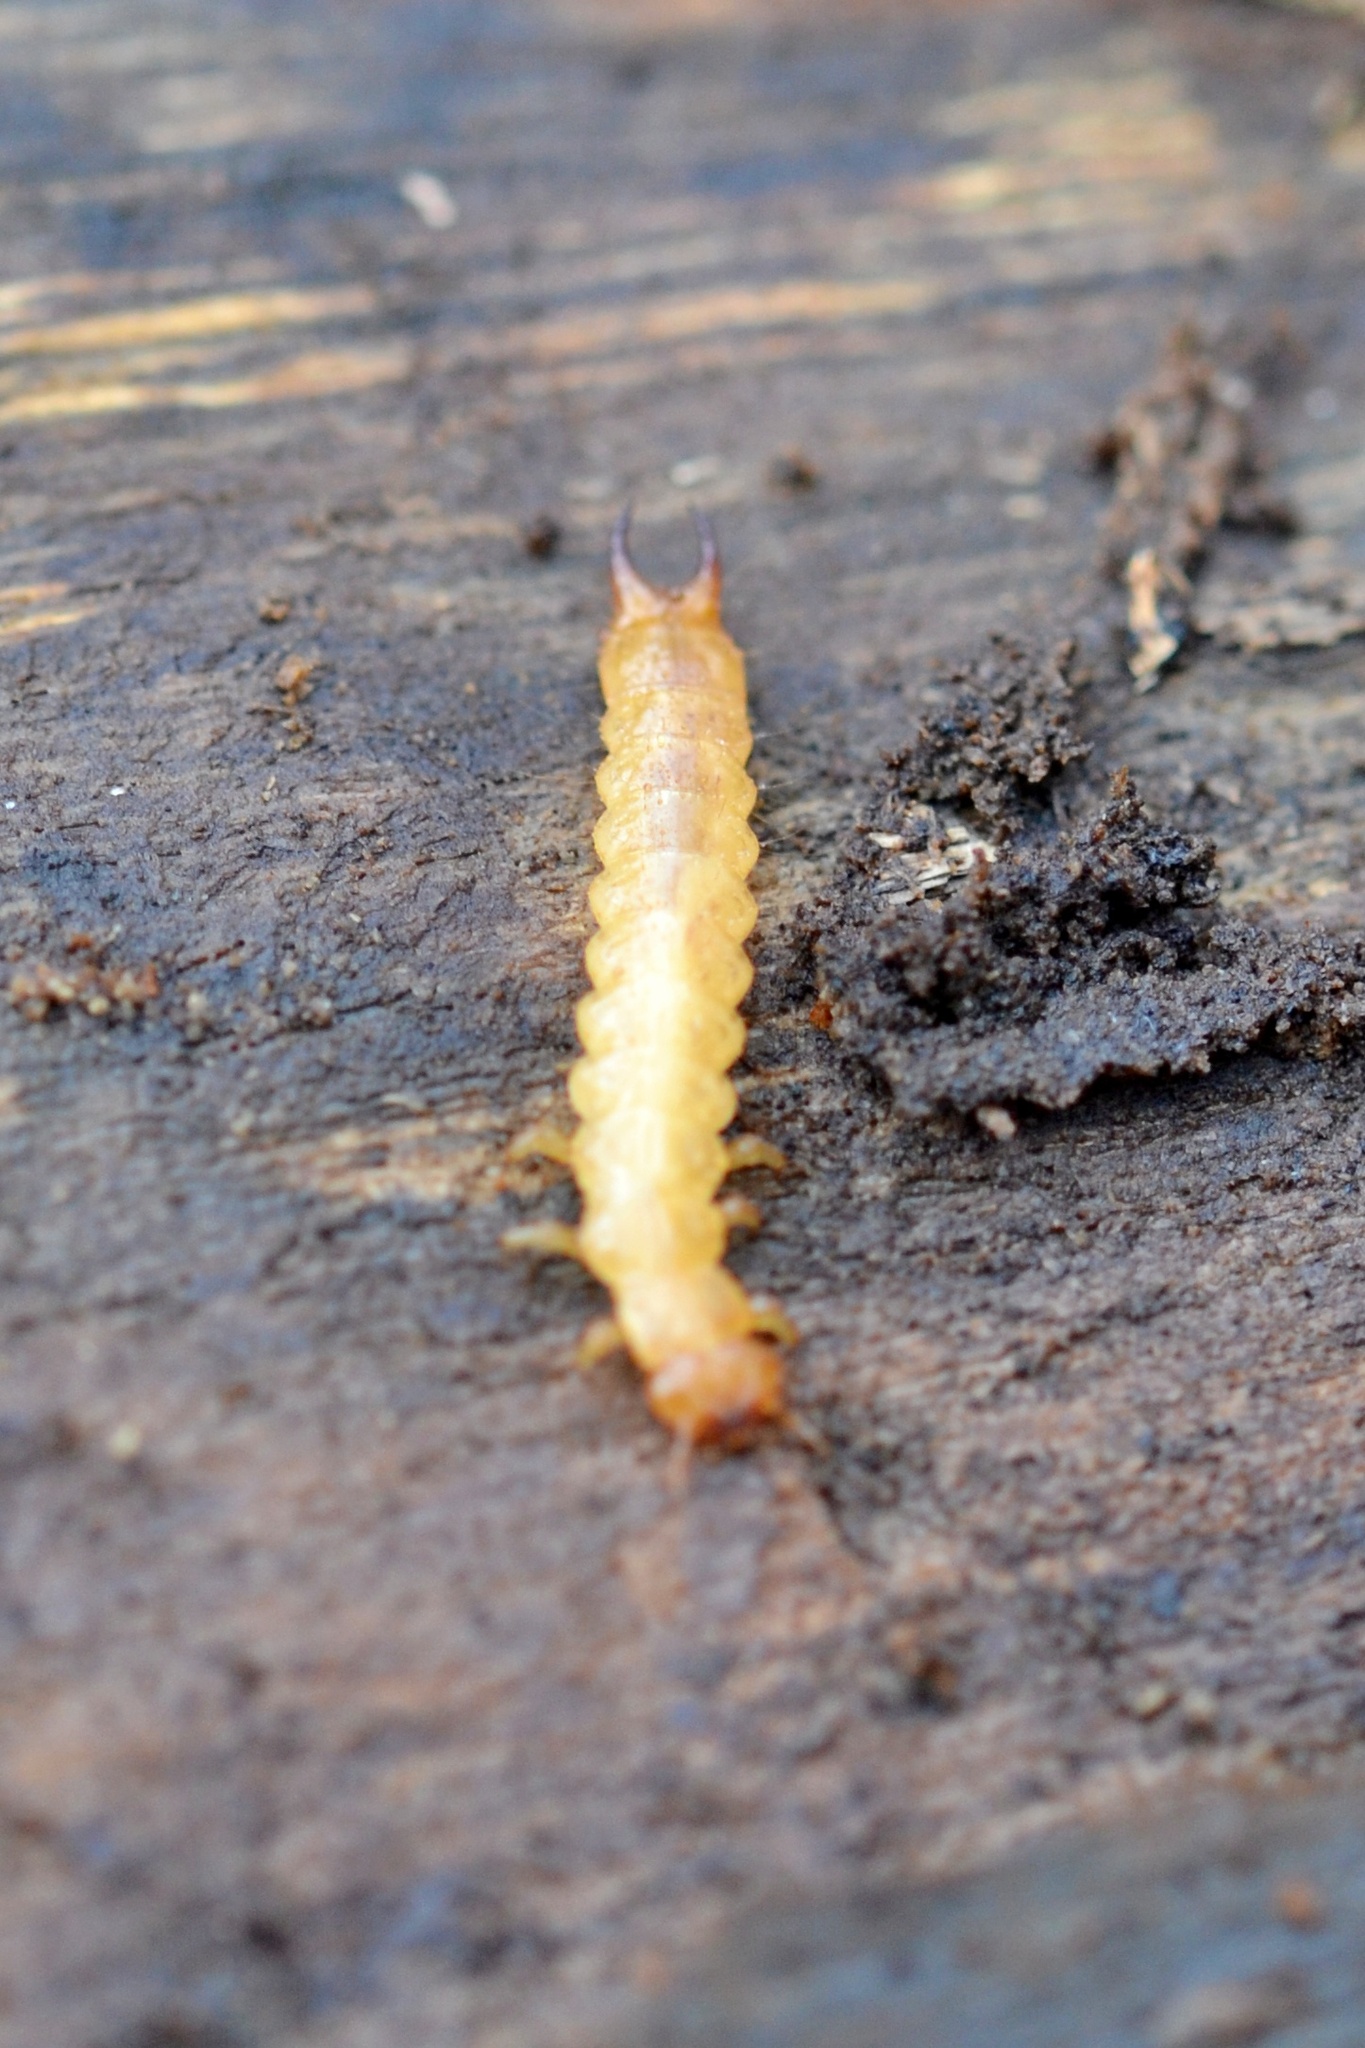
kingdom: Animalia
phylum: Arthropoda
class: Insecta
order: Coleoptera
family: Pyrochroidae
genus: Schizotus
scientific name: Schizotus pectinicornis
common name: Scarce cardinal beetle
